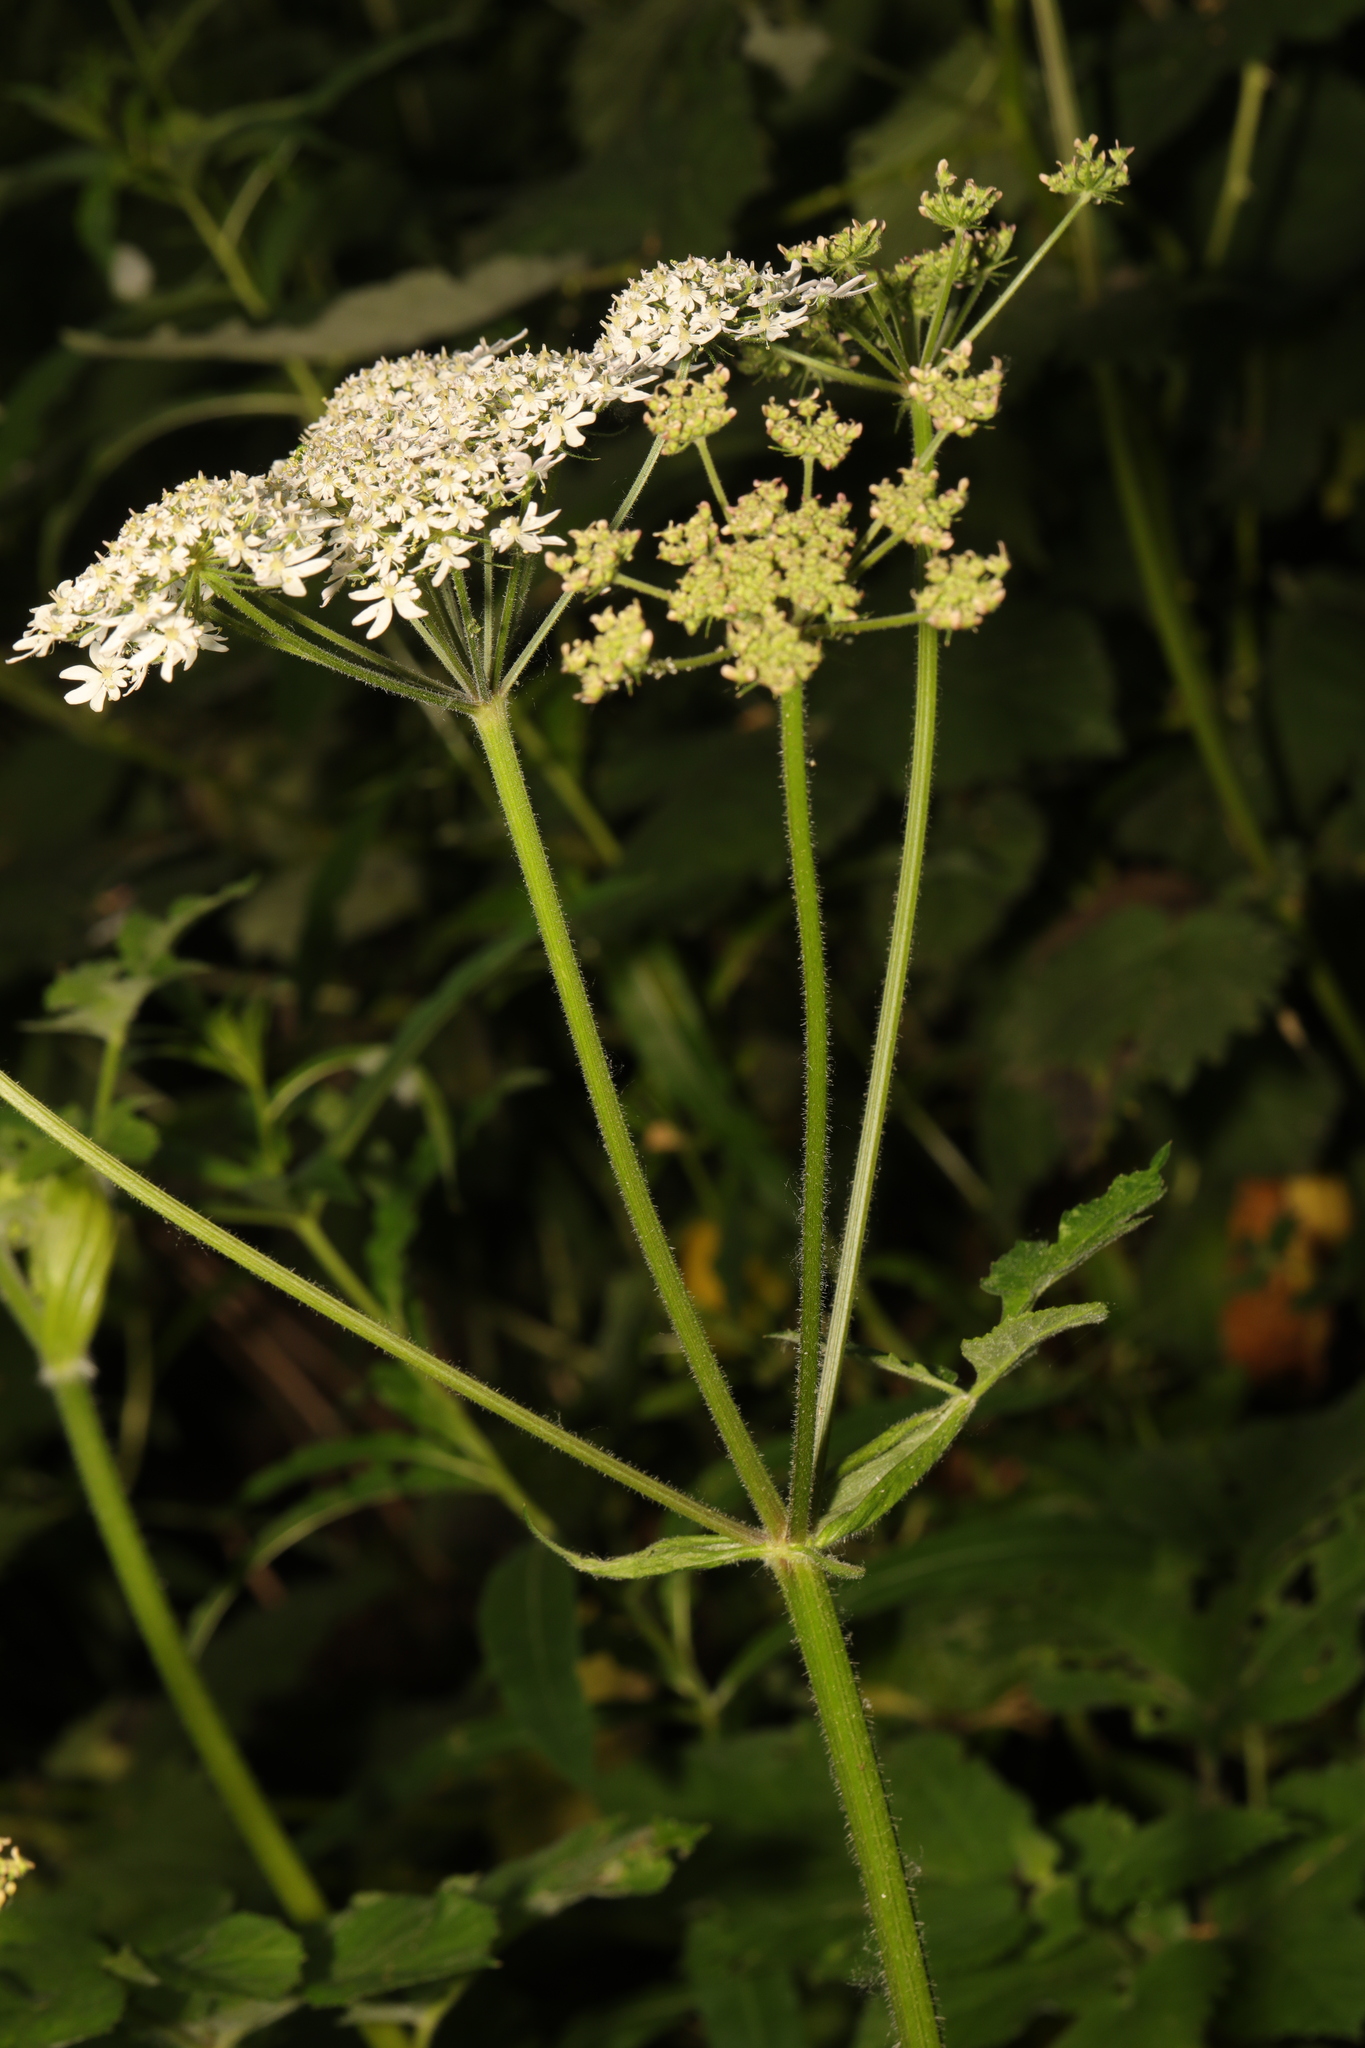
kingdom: Plantae
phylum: Tracheophyta
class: Magnoliopsida
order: Apiales
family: Apiaceae
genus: Heracleum
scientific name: Heracleum sphondylium
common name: Hogweed
